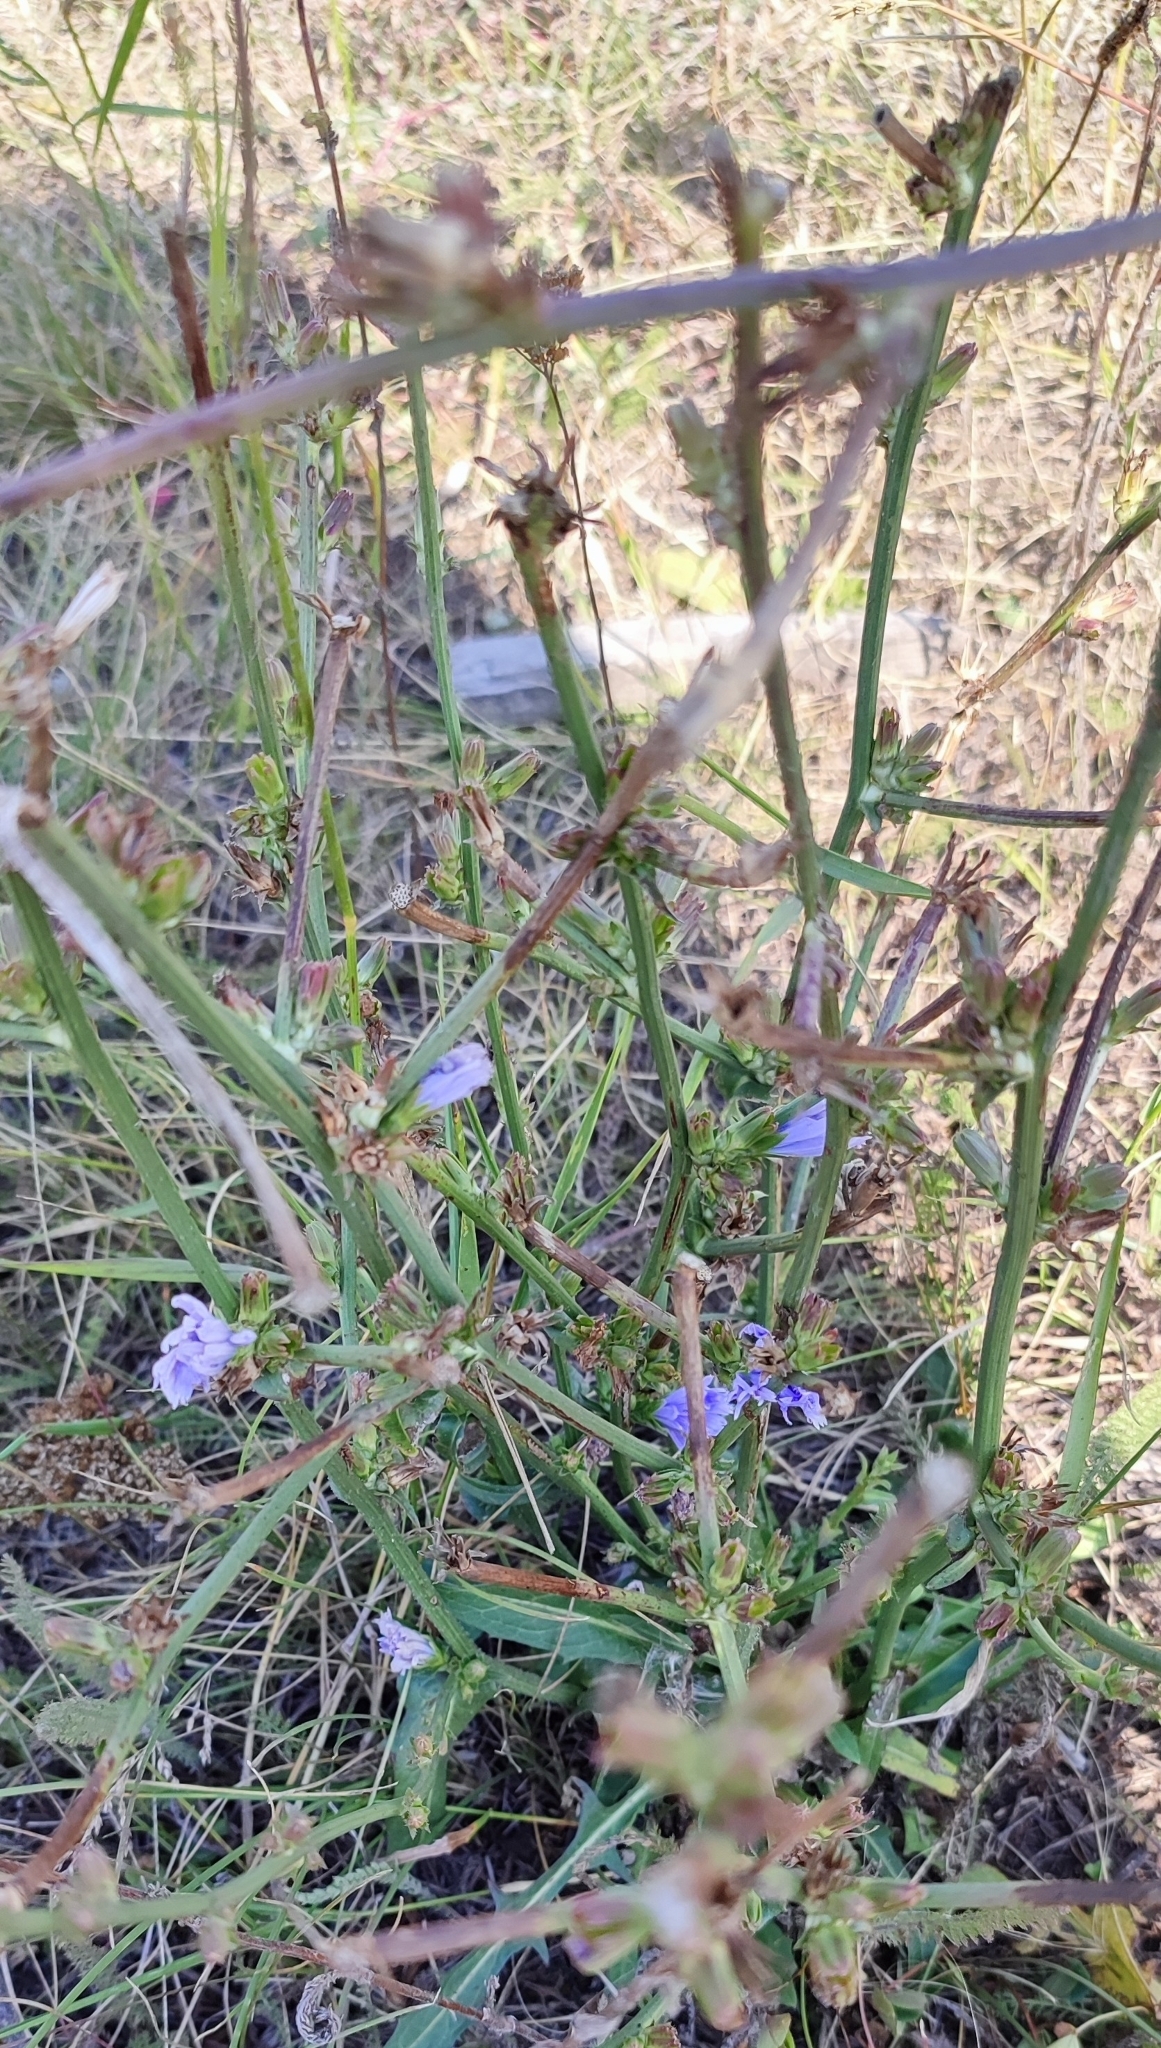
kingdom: Plantae
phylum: Tracheophyta
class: Magnoliopsida
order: Asterales
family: Asteraceae
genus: Cichorium
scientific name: Cichorium intybus
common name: Chicory
